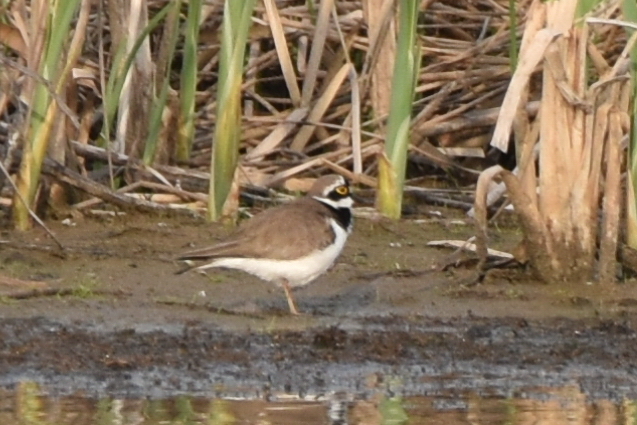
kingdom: Animalia
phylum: Chordata
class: Aves
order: Charadriiformes
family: Charadriidae
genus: Charadrius
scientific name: Charadrius dubius
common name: Little ringed plover
